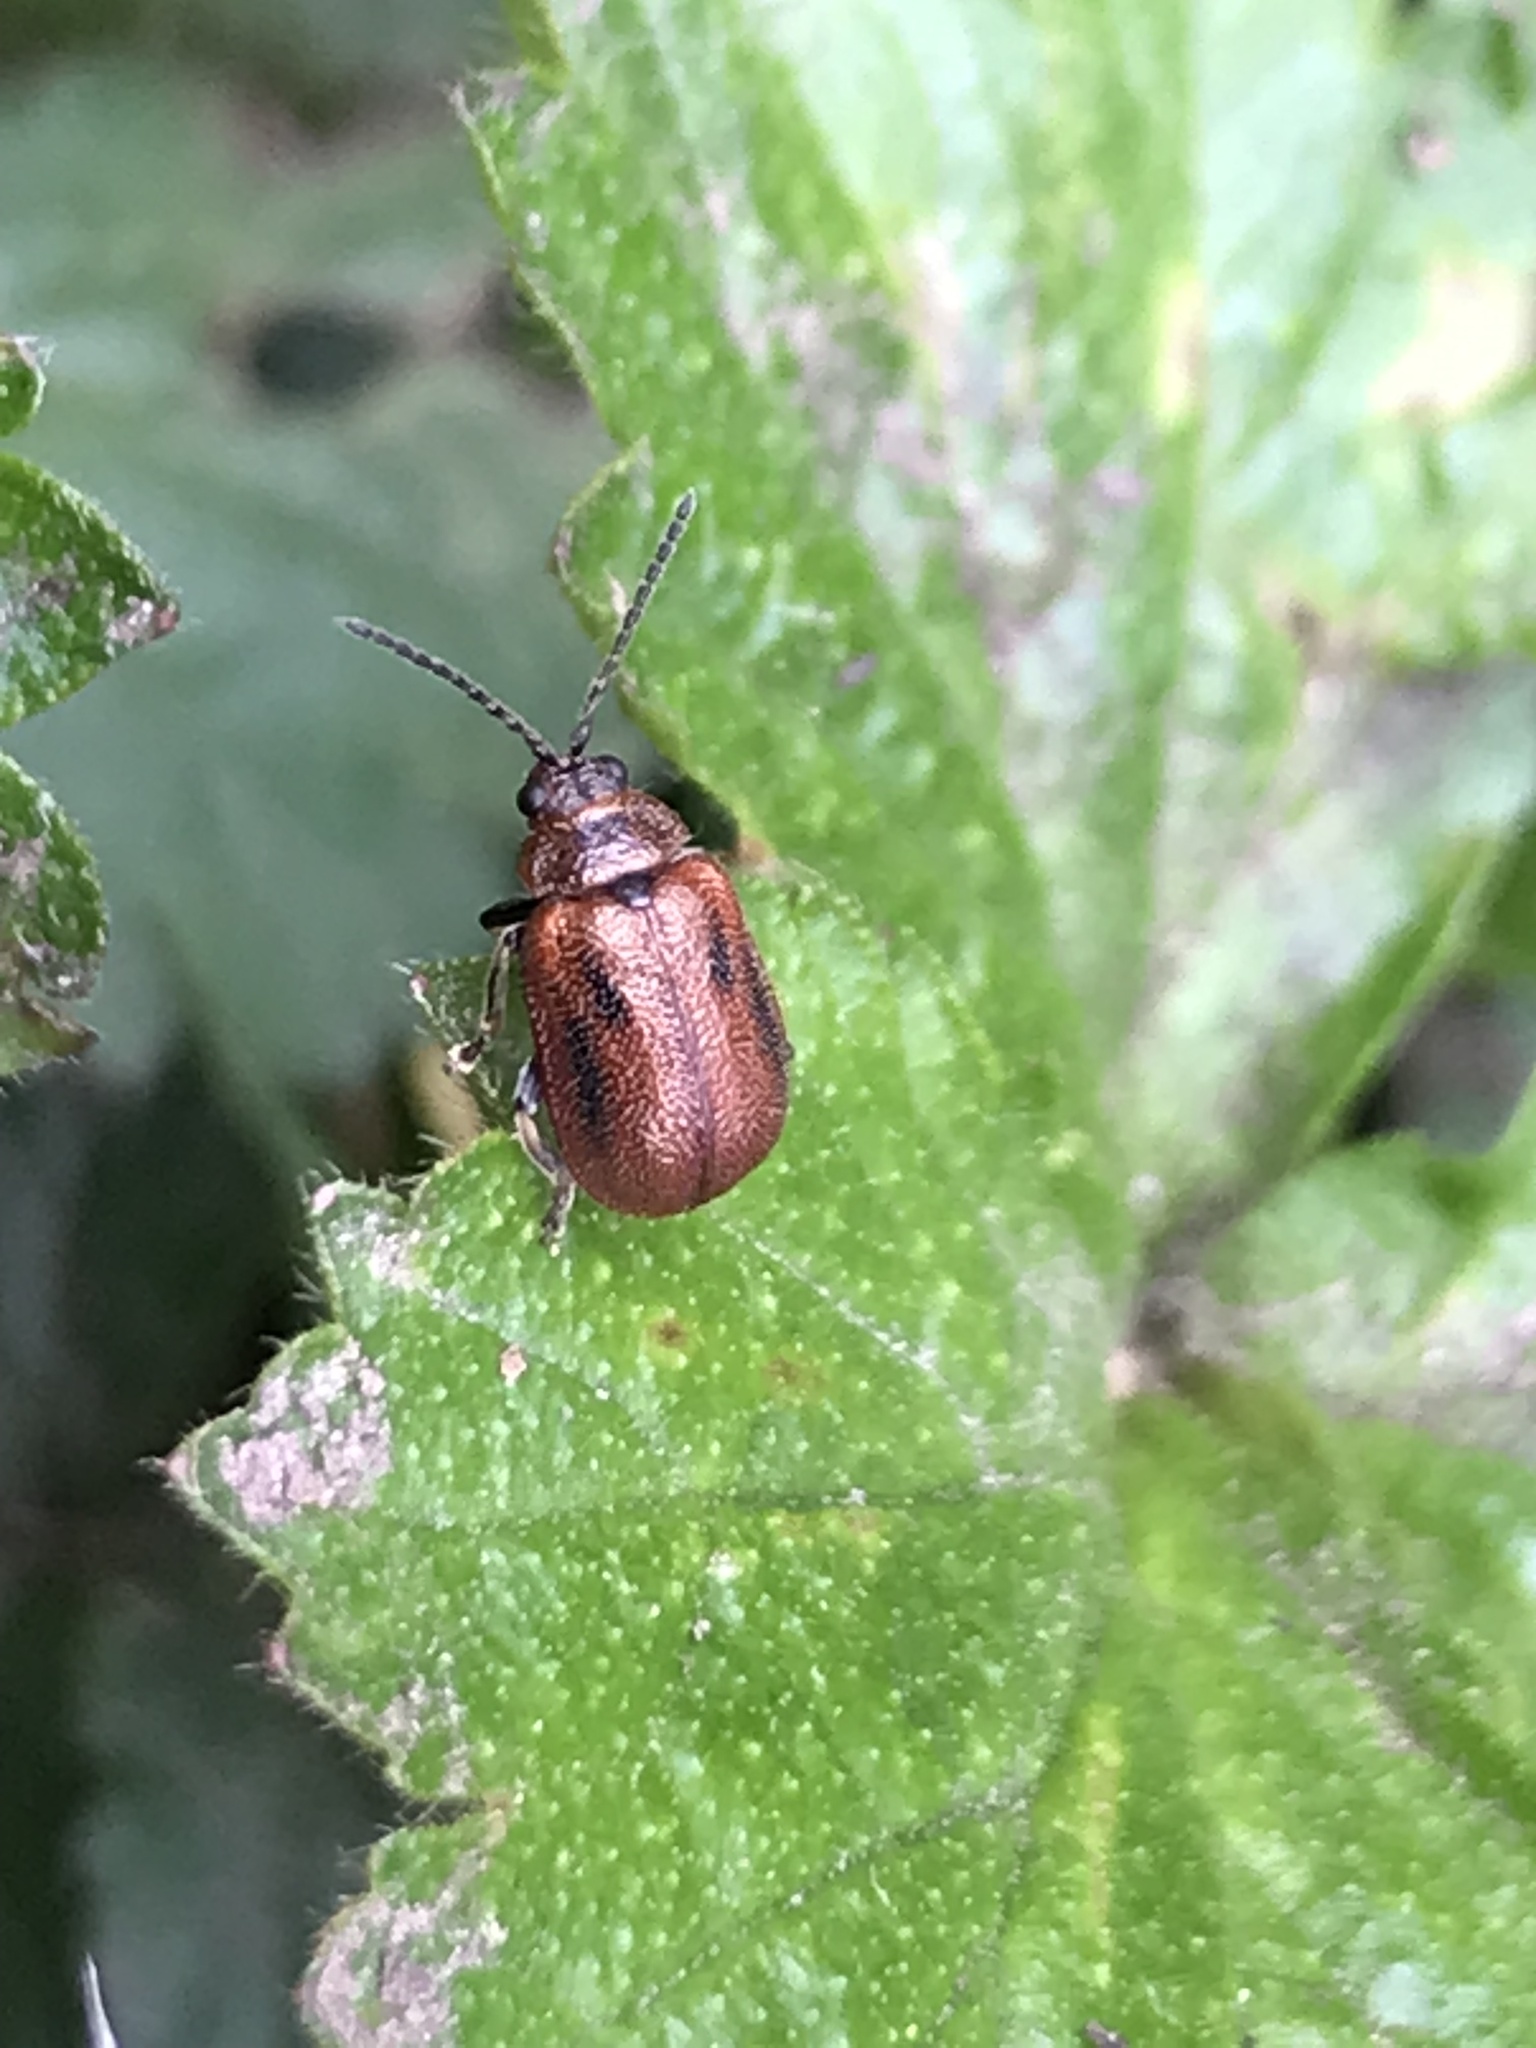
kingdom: Animalia
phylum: Arthropoda
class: Insecta
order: Coleoptera
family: Chrysomelidae
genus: Lochmaea
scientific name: Lochmaea crataegi
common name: Hawthorn leaf beetle
